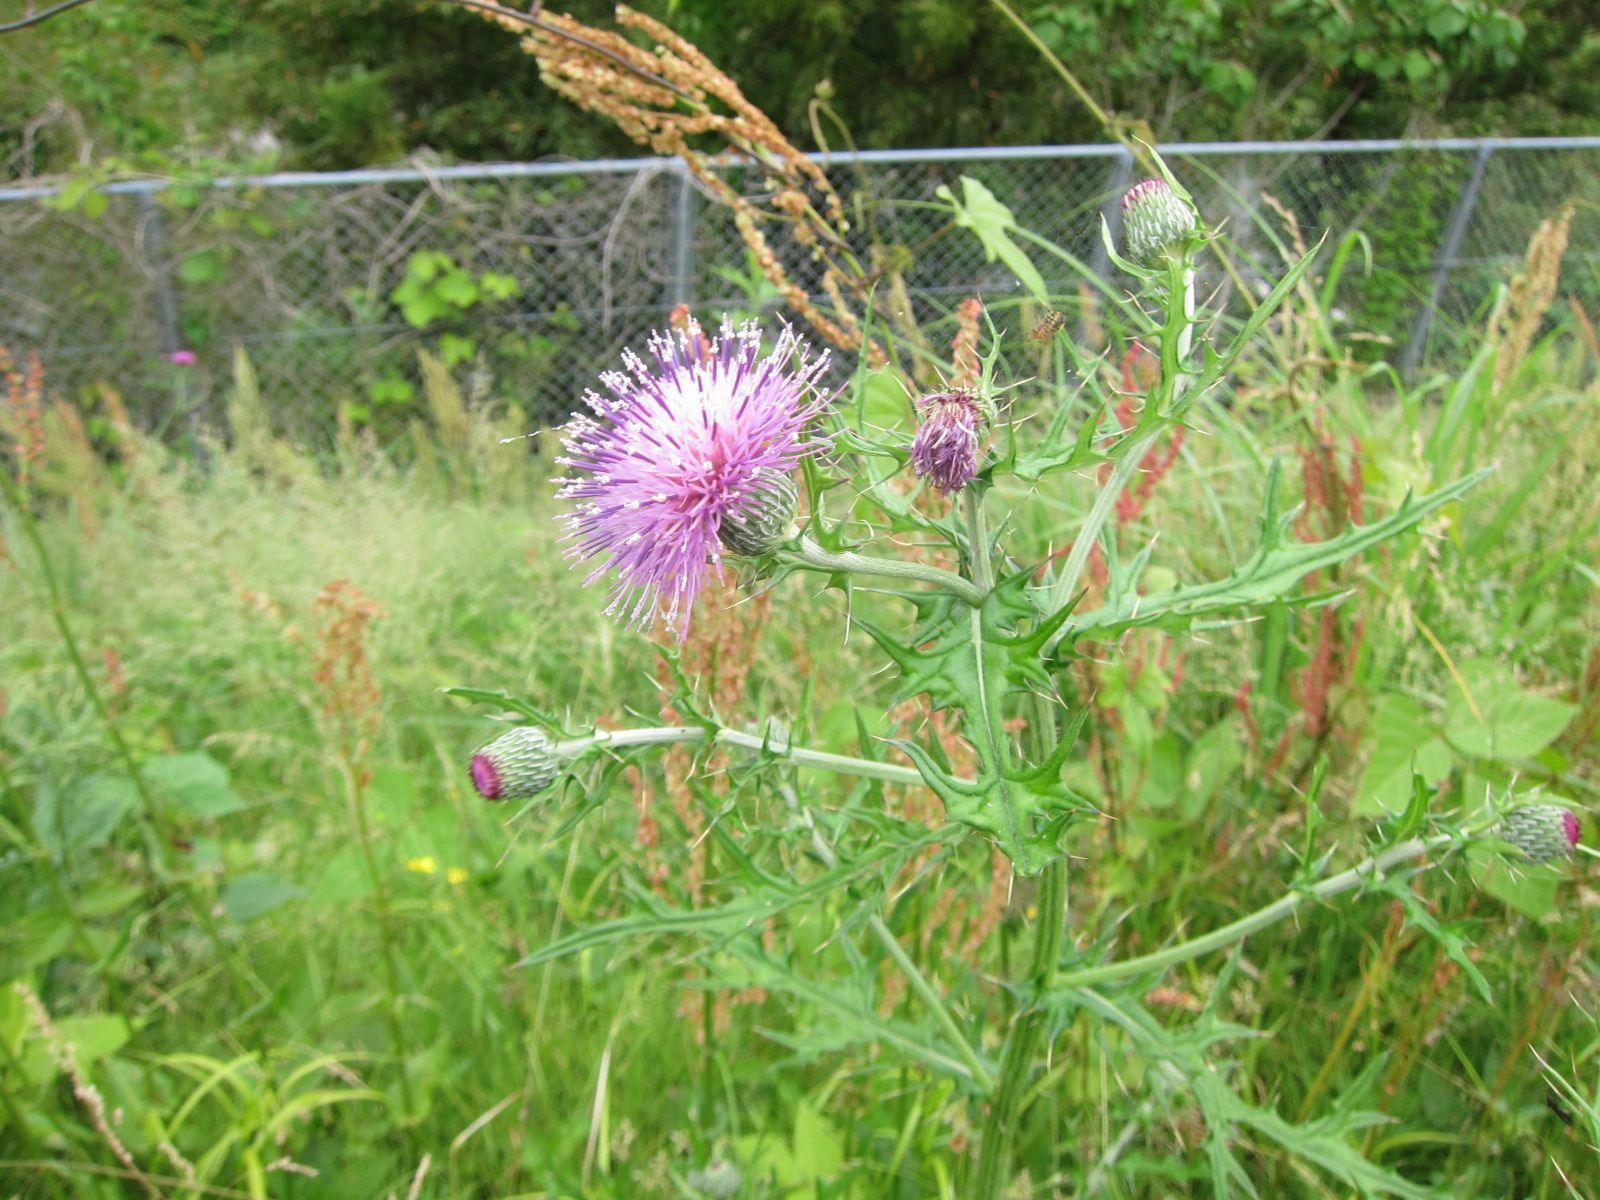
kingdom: Plantae
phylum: Tracheophyta
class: Magnoliopsida
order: Asterales
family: Asteraceae
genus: Cirsium
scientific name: Cirsium japonicum
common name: Japanese thistle
